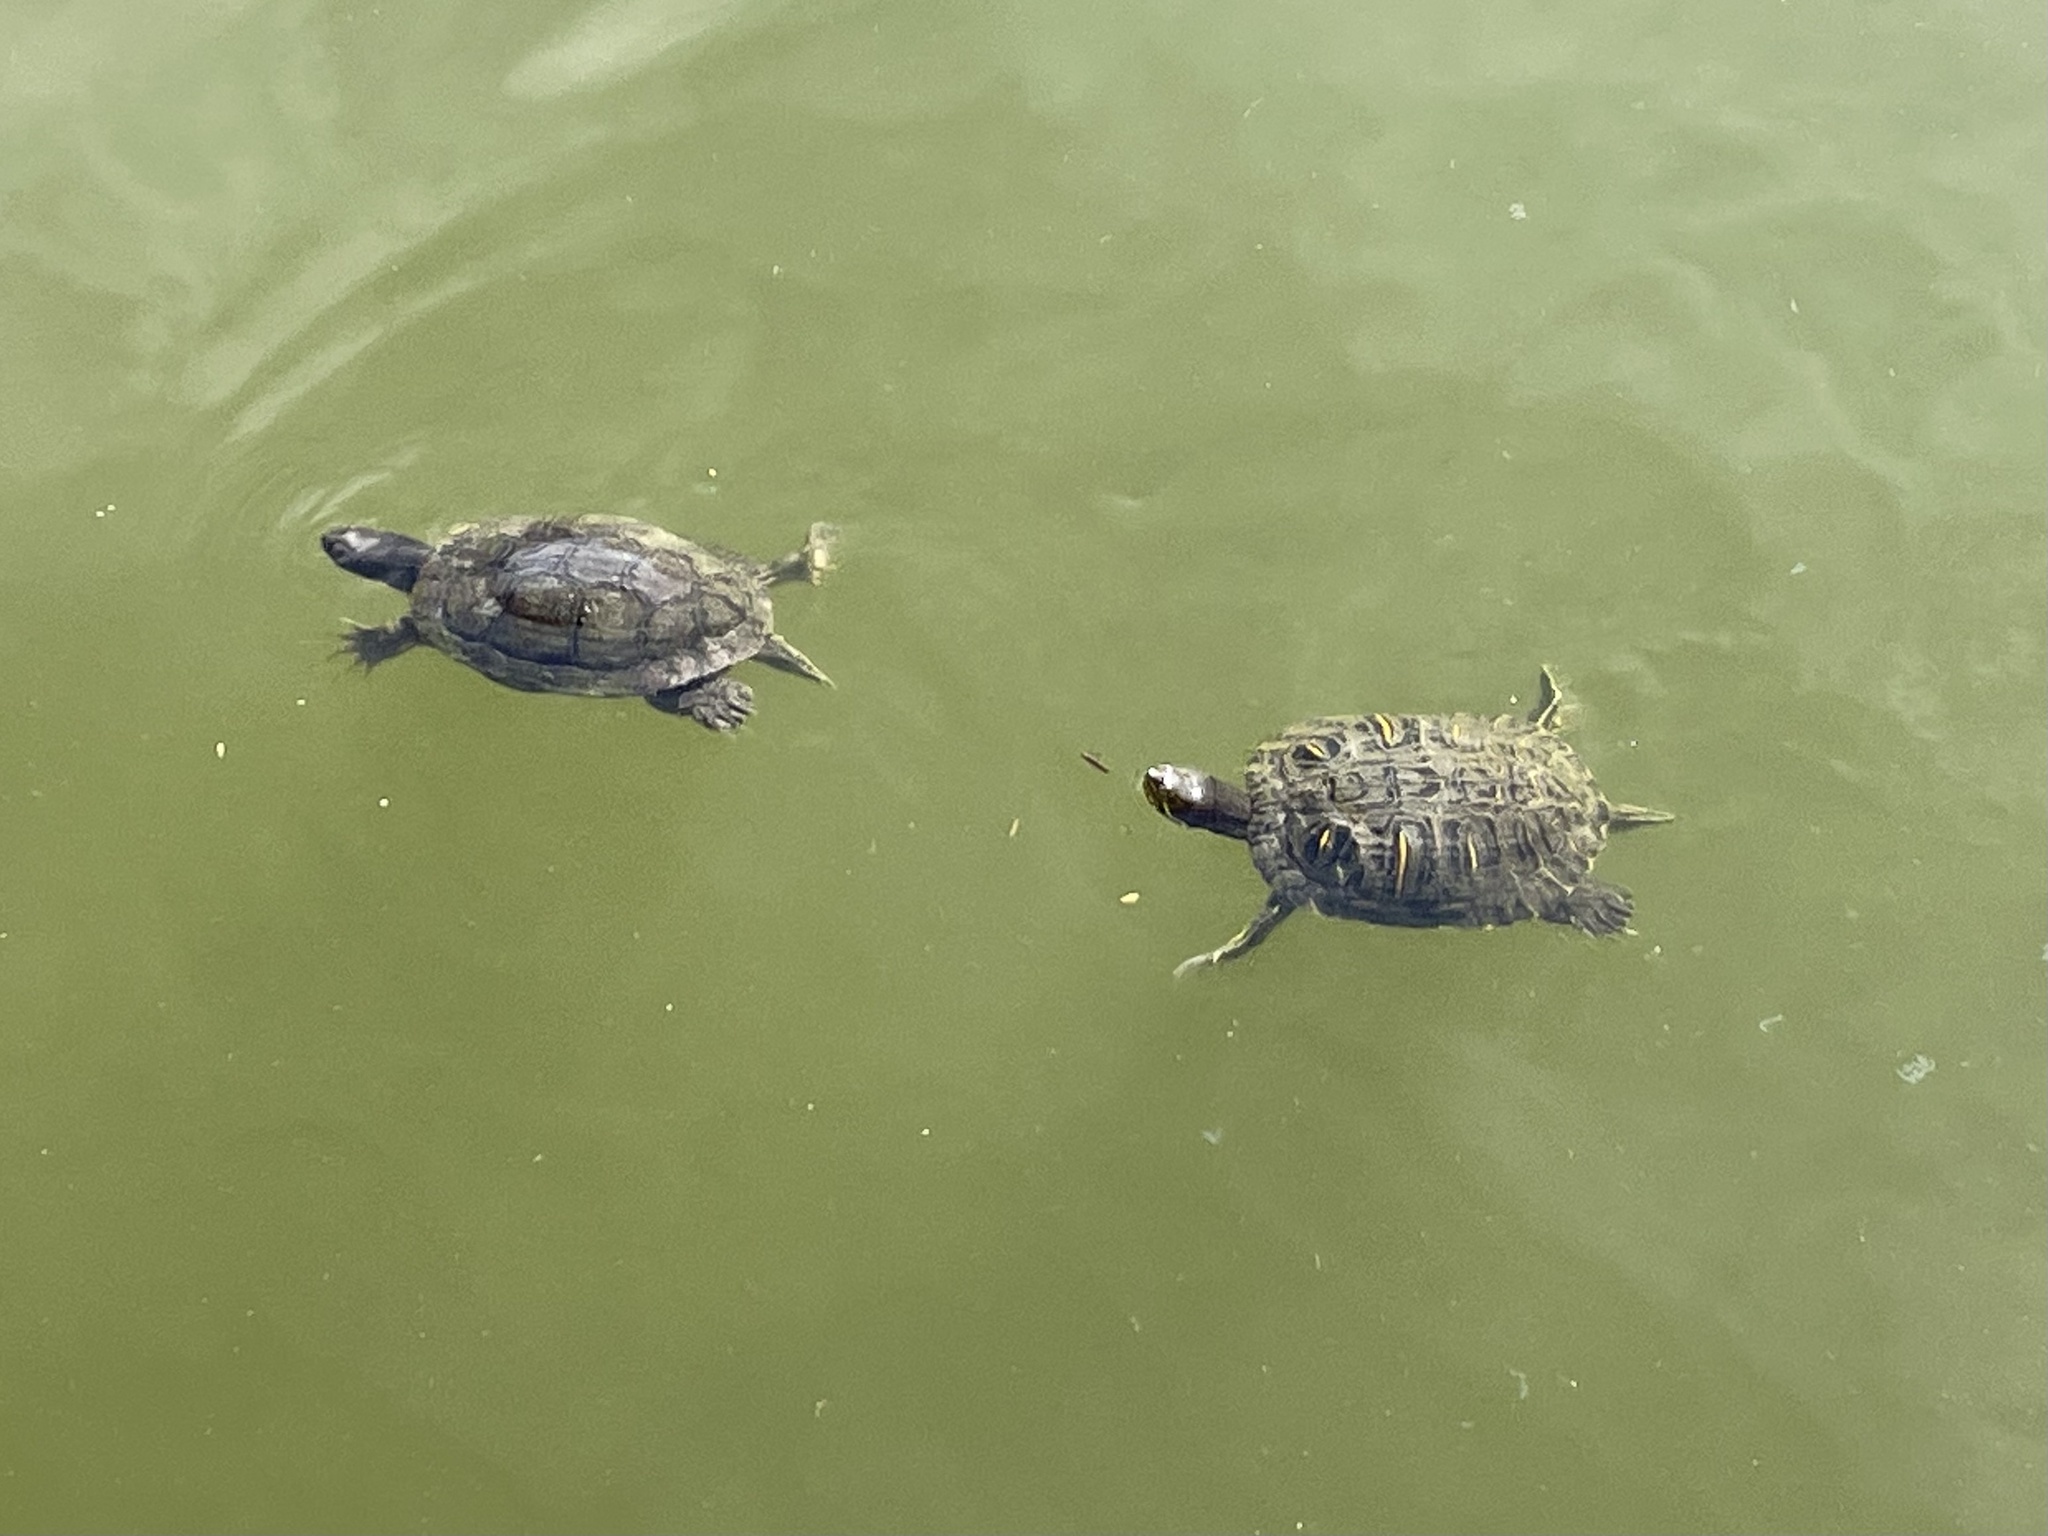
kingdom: Animalia
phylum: Chordata
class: Testudines
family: Emydidae
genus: Trachemys
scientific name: Trachemys scripta
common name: Slider
